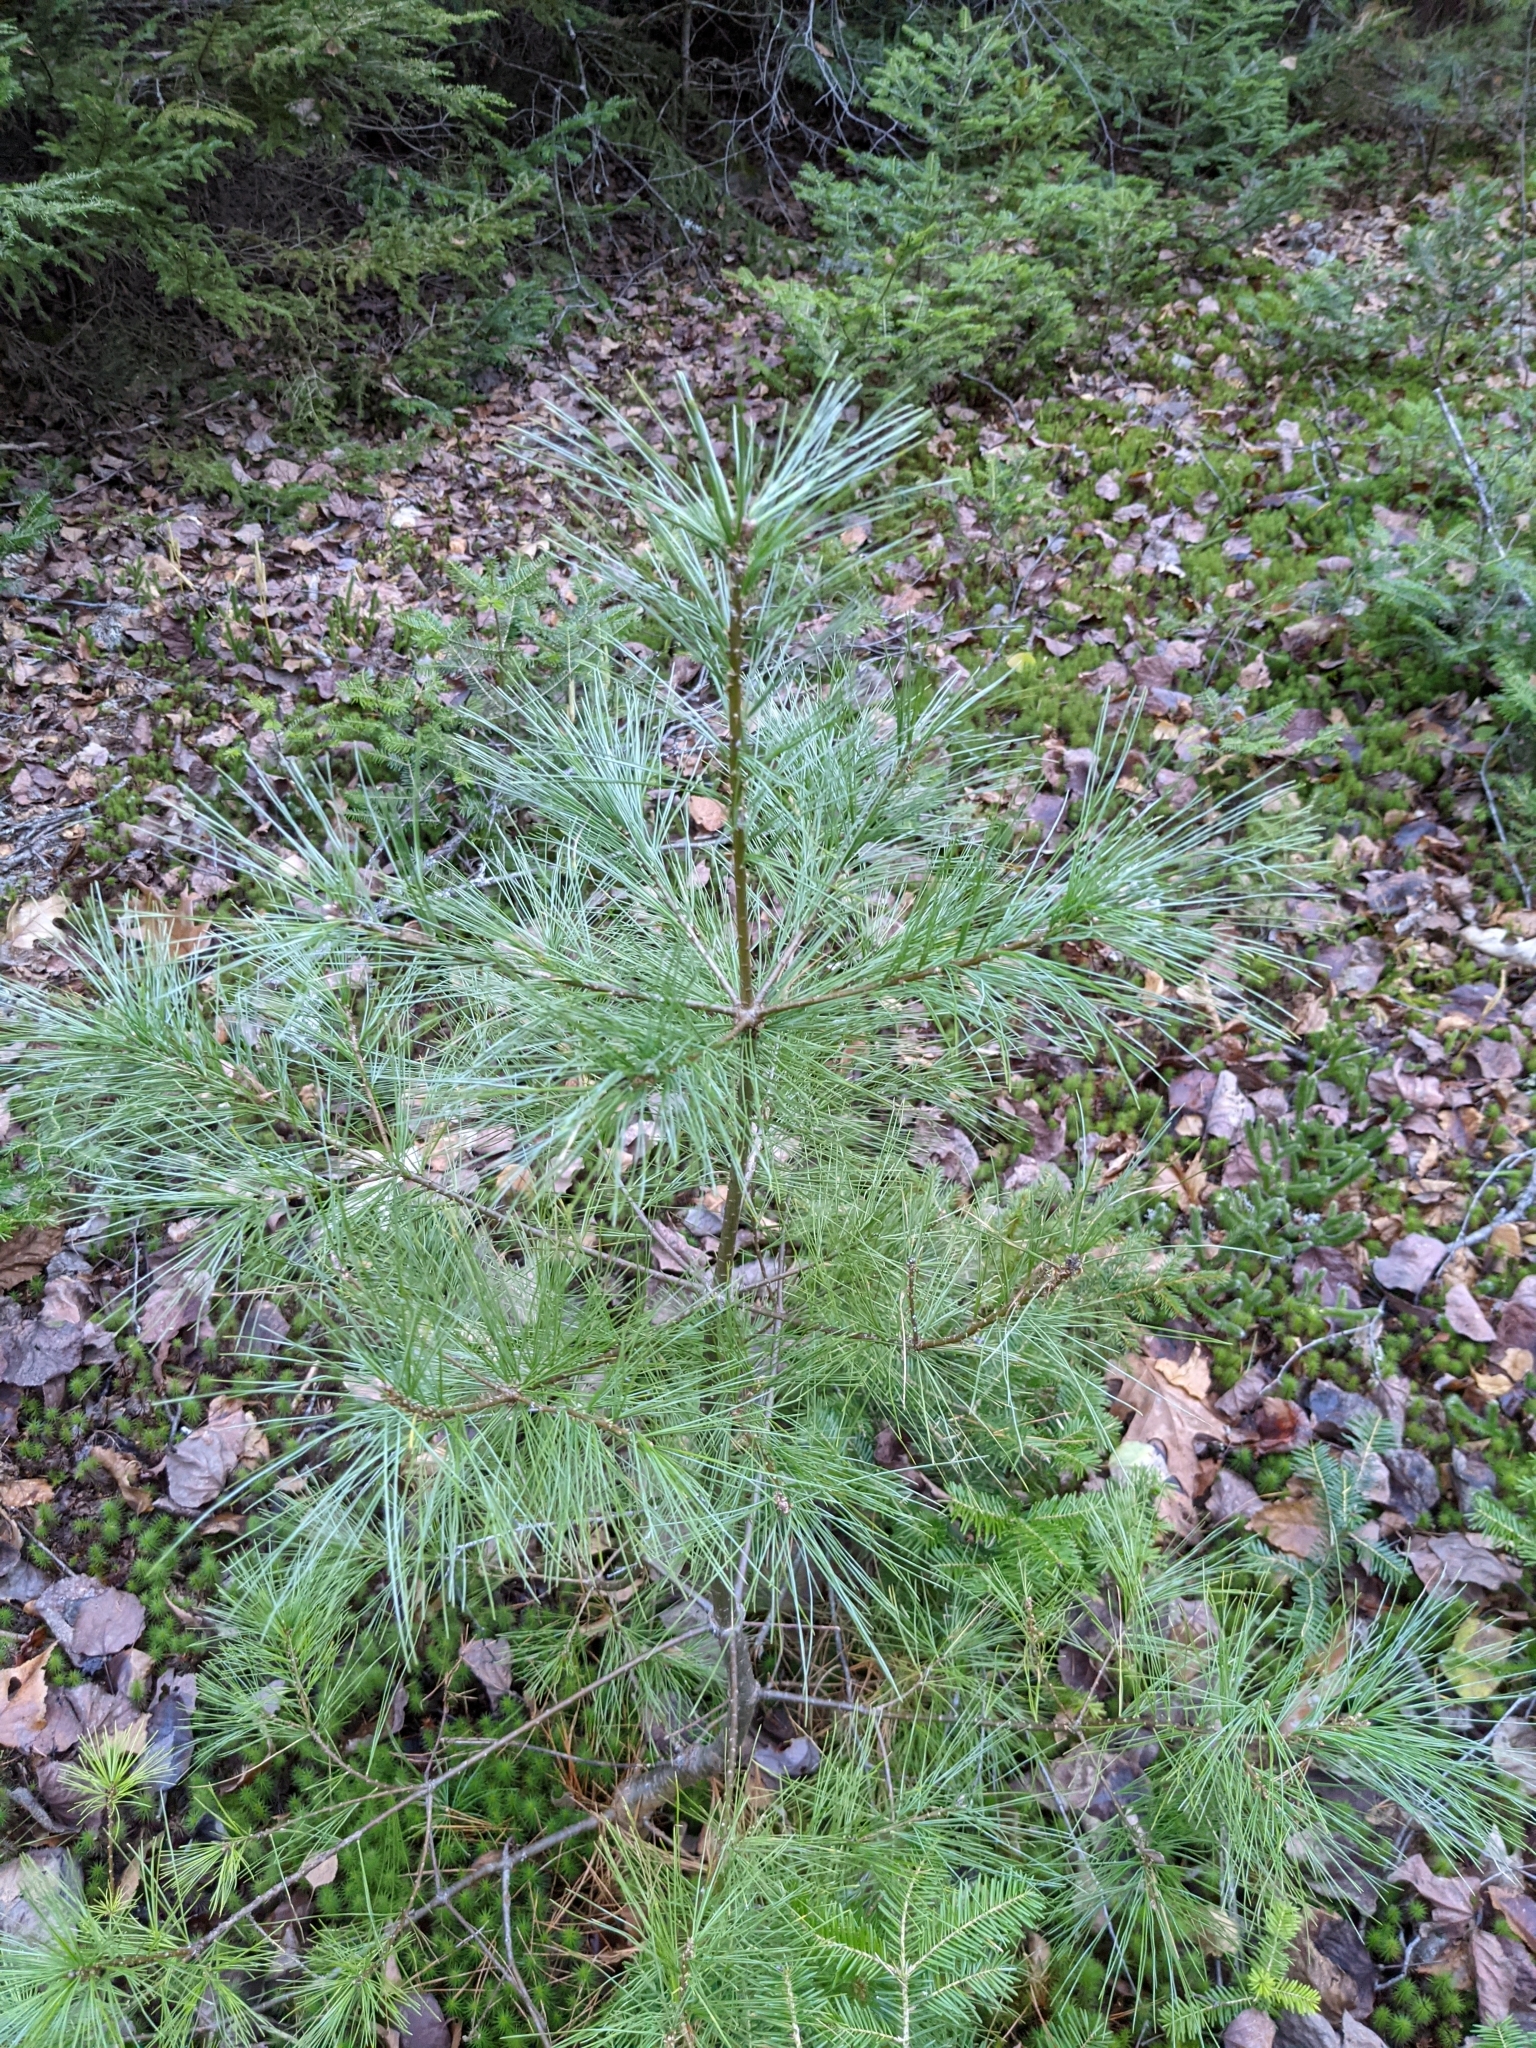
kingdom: Plantae
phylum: Tracheophyta
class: Pinopsida
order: Pinales
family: Pinaceae
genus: Pinus
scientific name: Pinus strobus
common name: Weymouth pine
